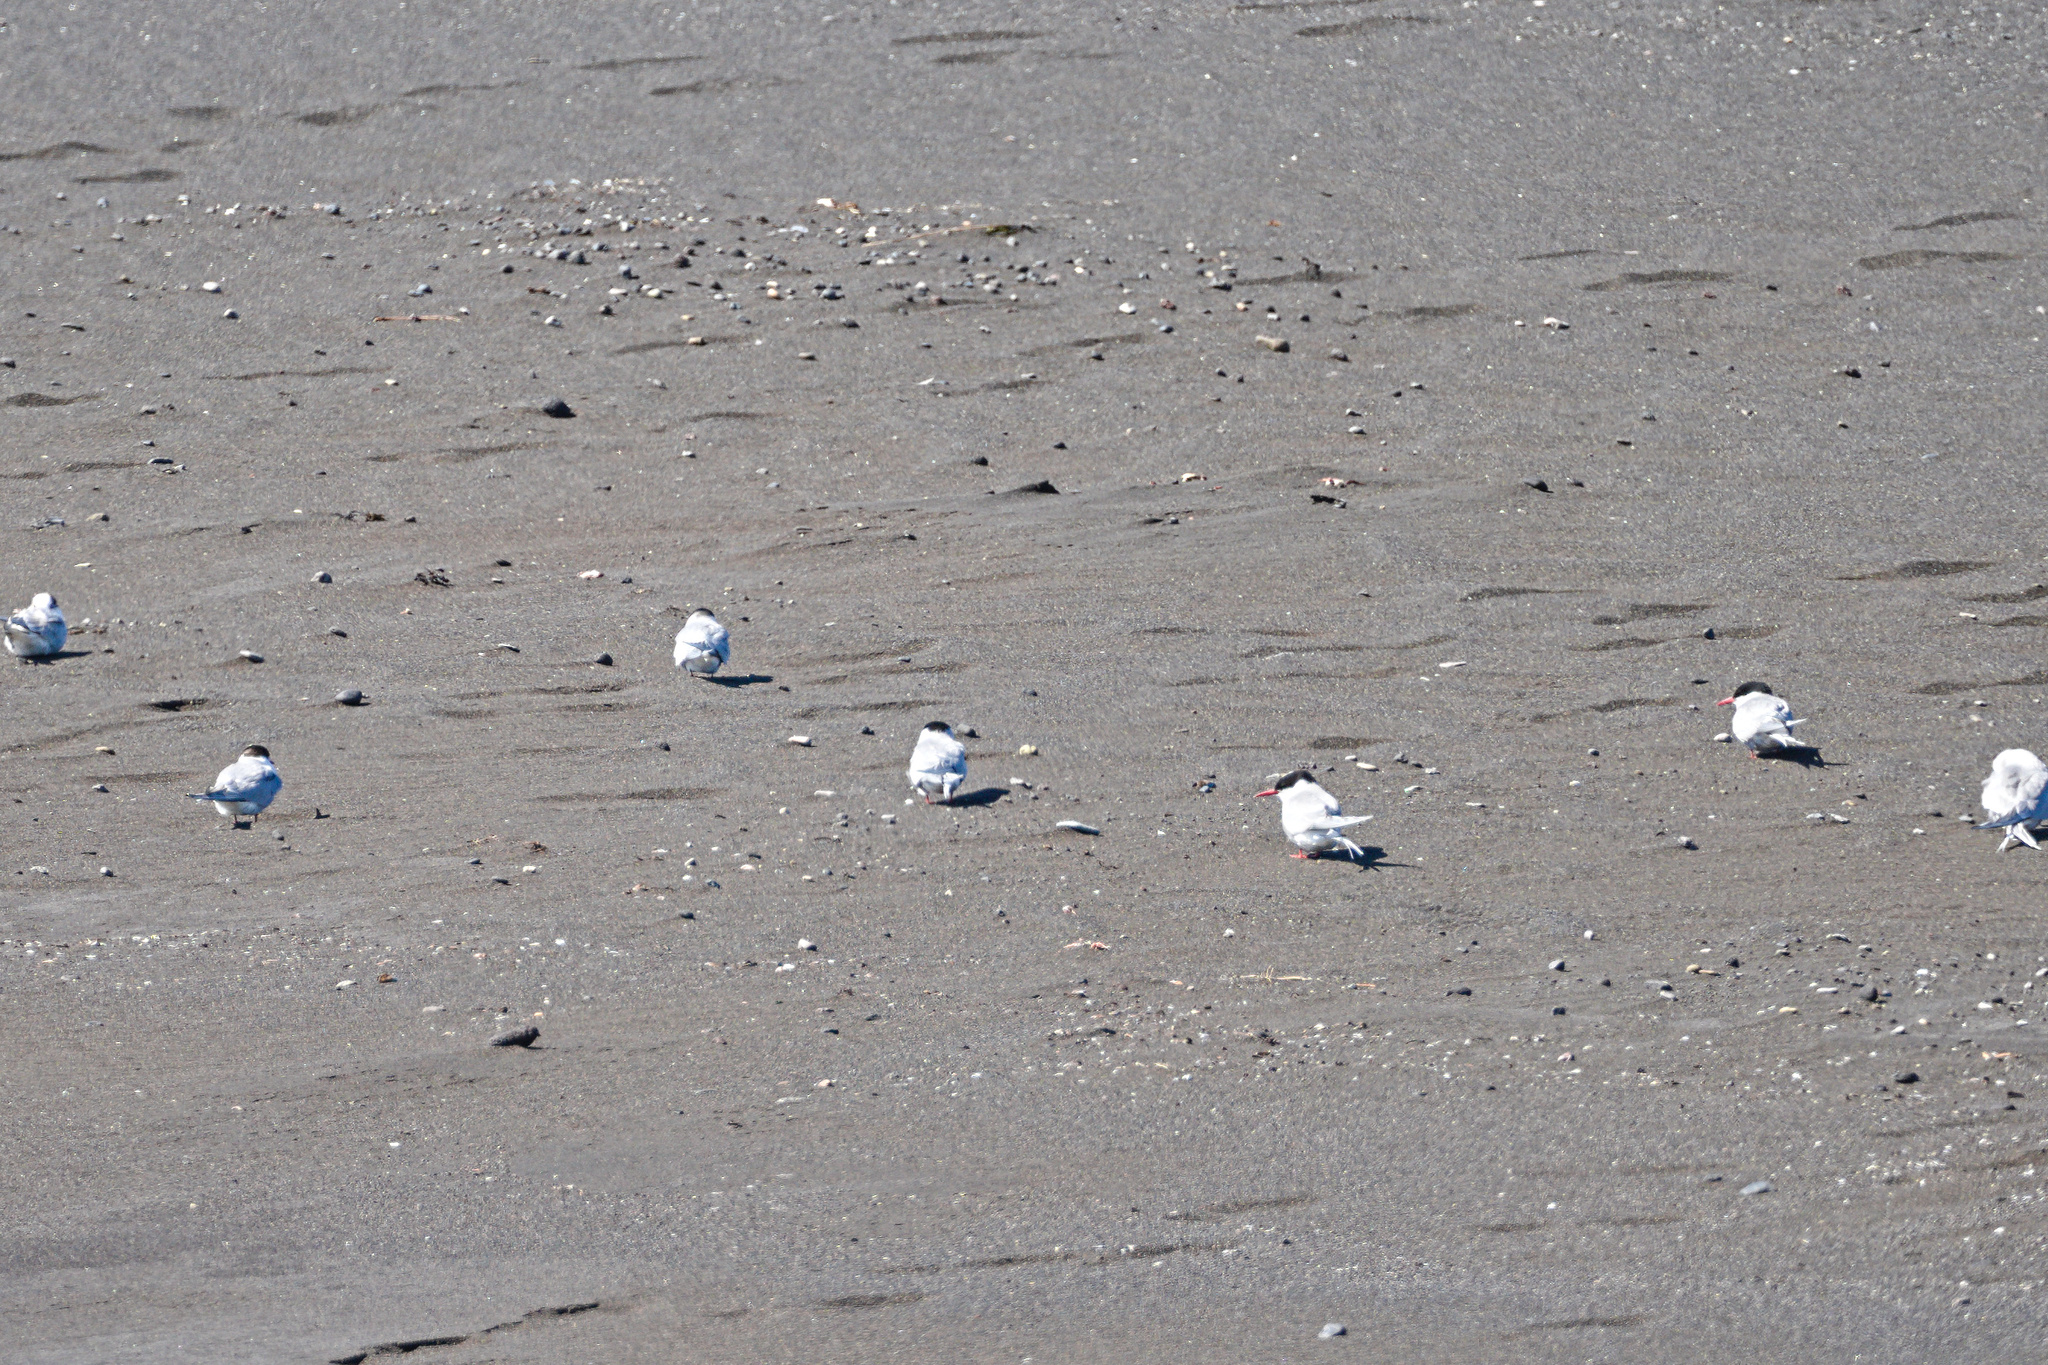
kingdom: Animalia
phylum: Chordata
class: Aves
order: Charadriiformes
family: Laridae
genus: Sterna
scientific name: Sterna paradisaea
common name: Arctic tern
